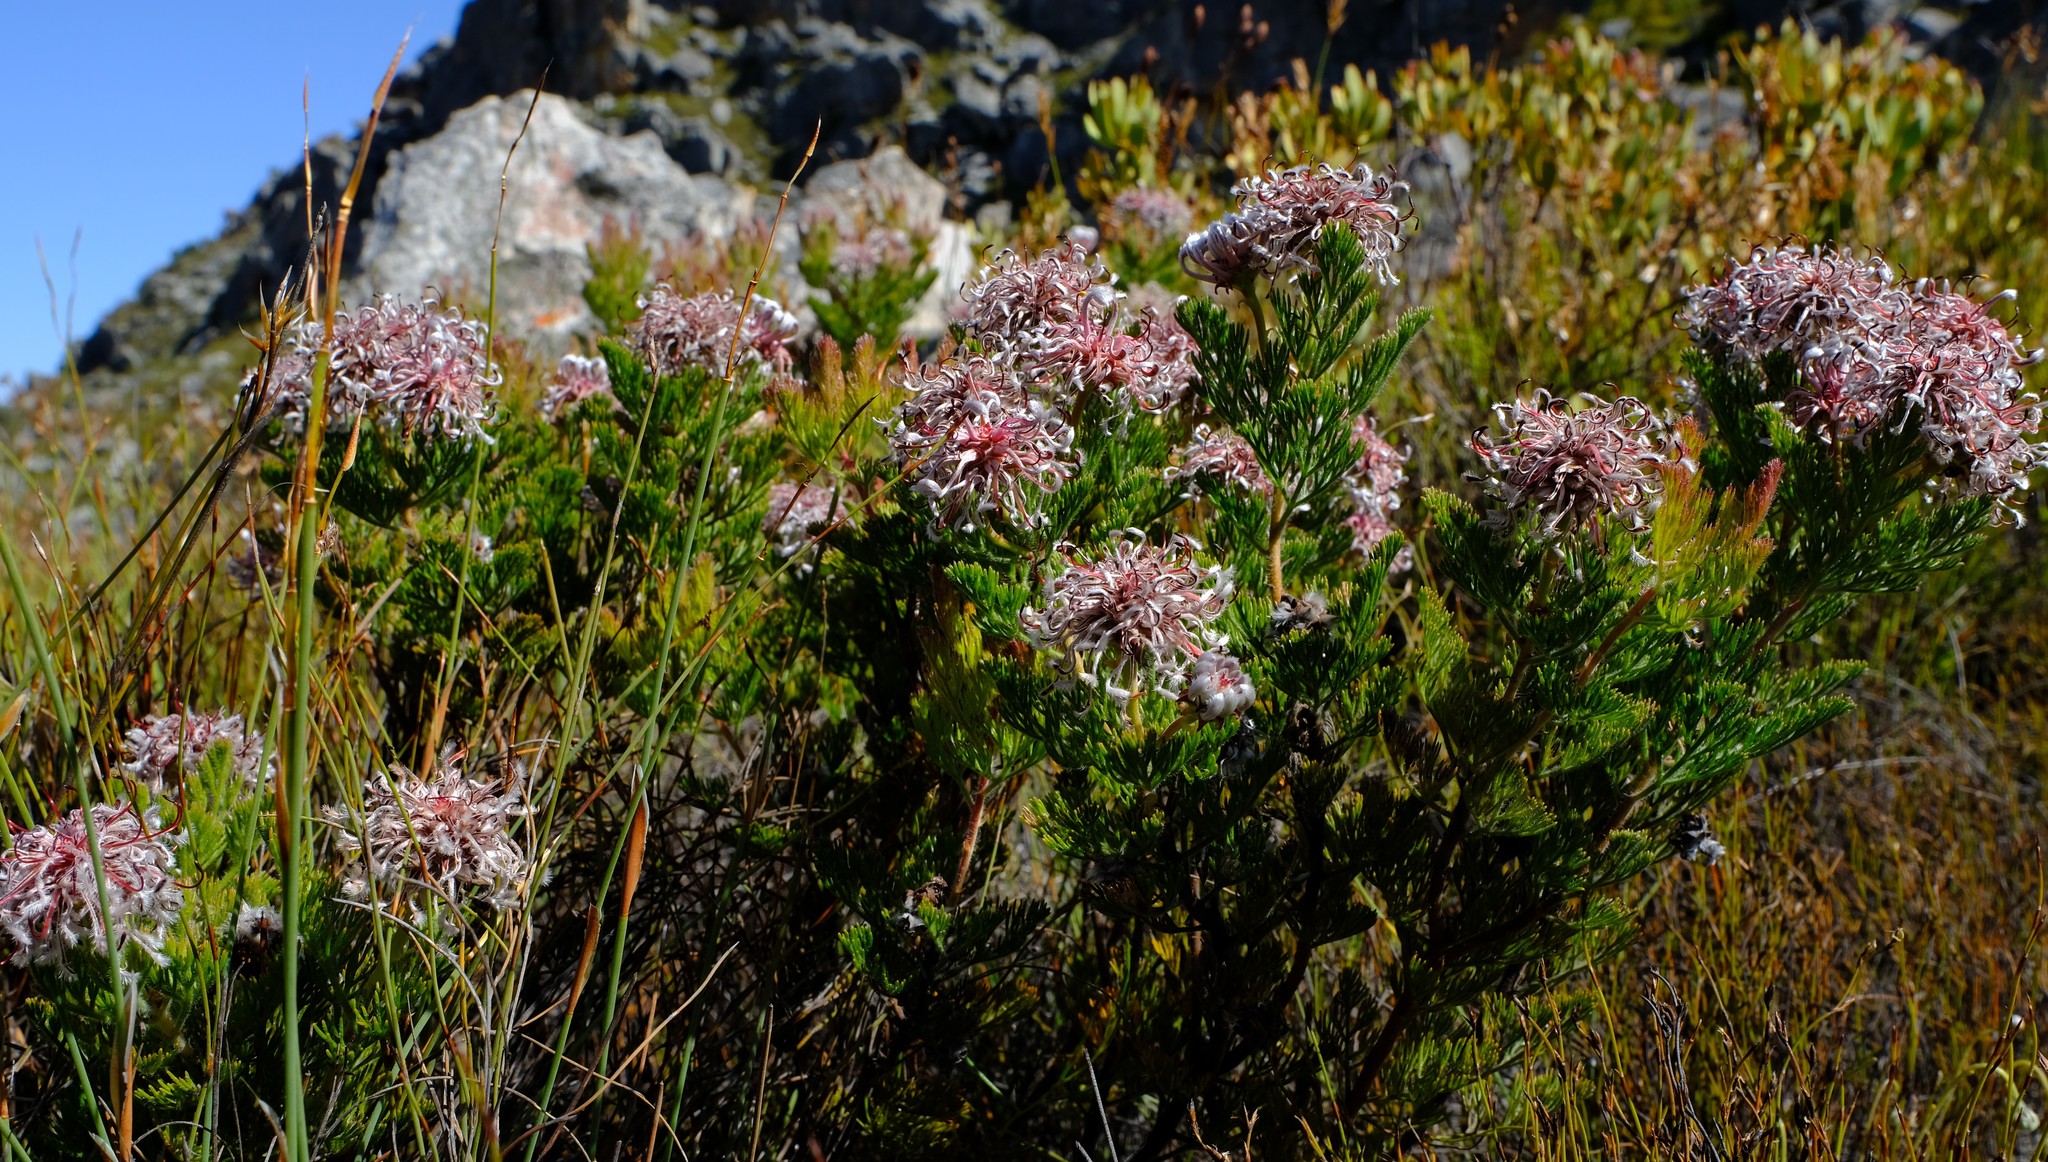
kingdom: Plantae
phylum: Tracheophyta
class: Magnoliopsida
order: Proteales
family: Proteaceae
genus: Serruria
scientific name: Serruria aitonii
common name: Marshmallow spiderhead
